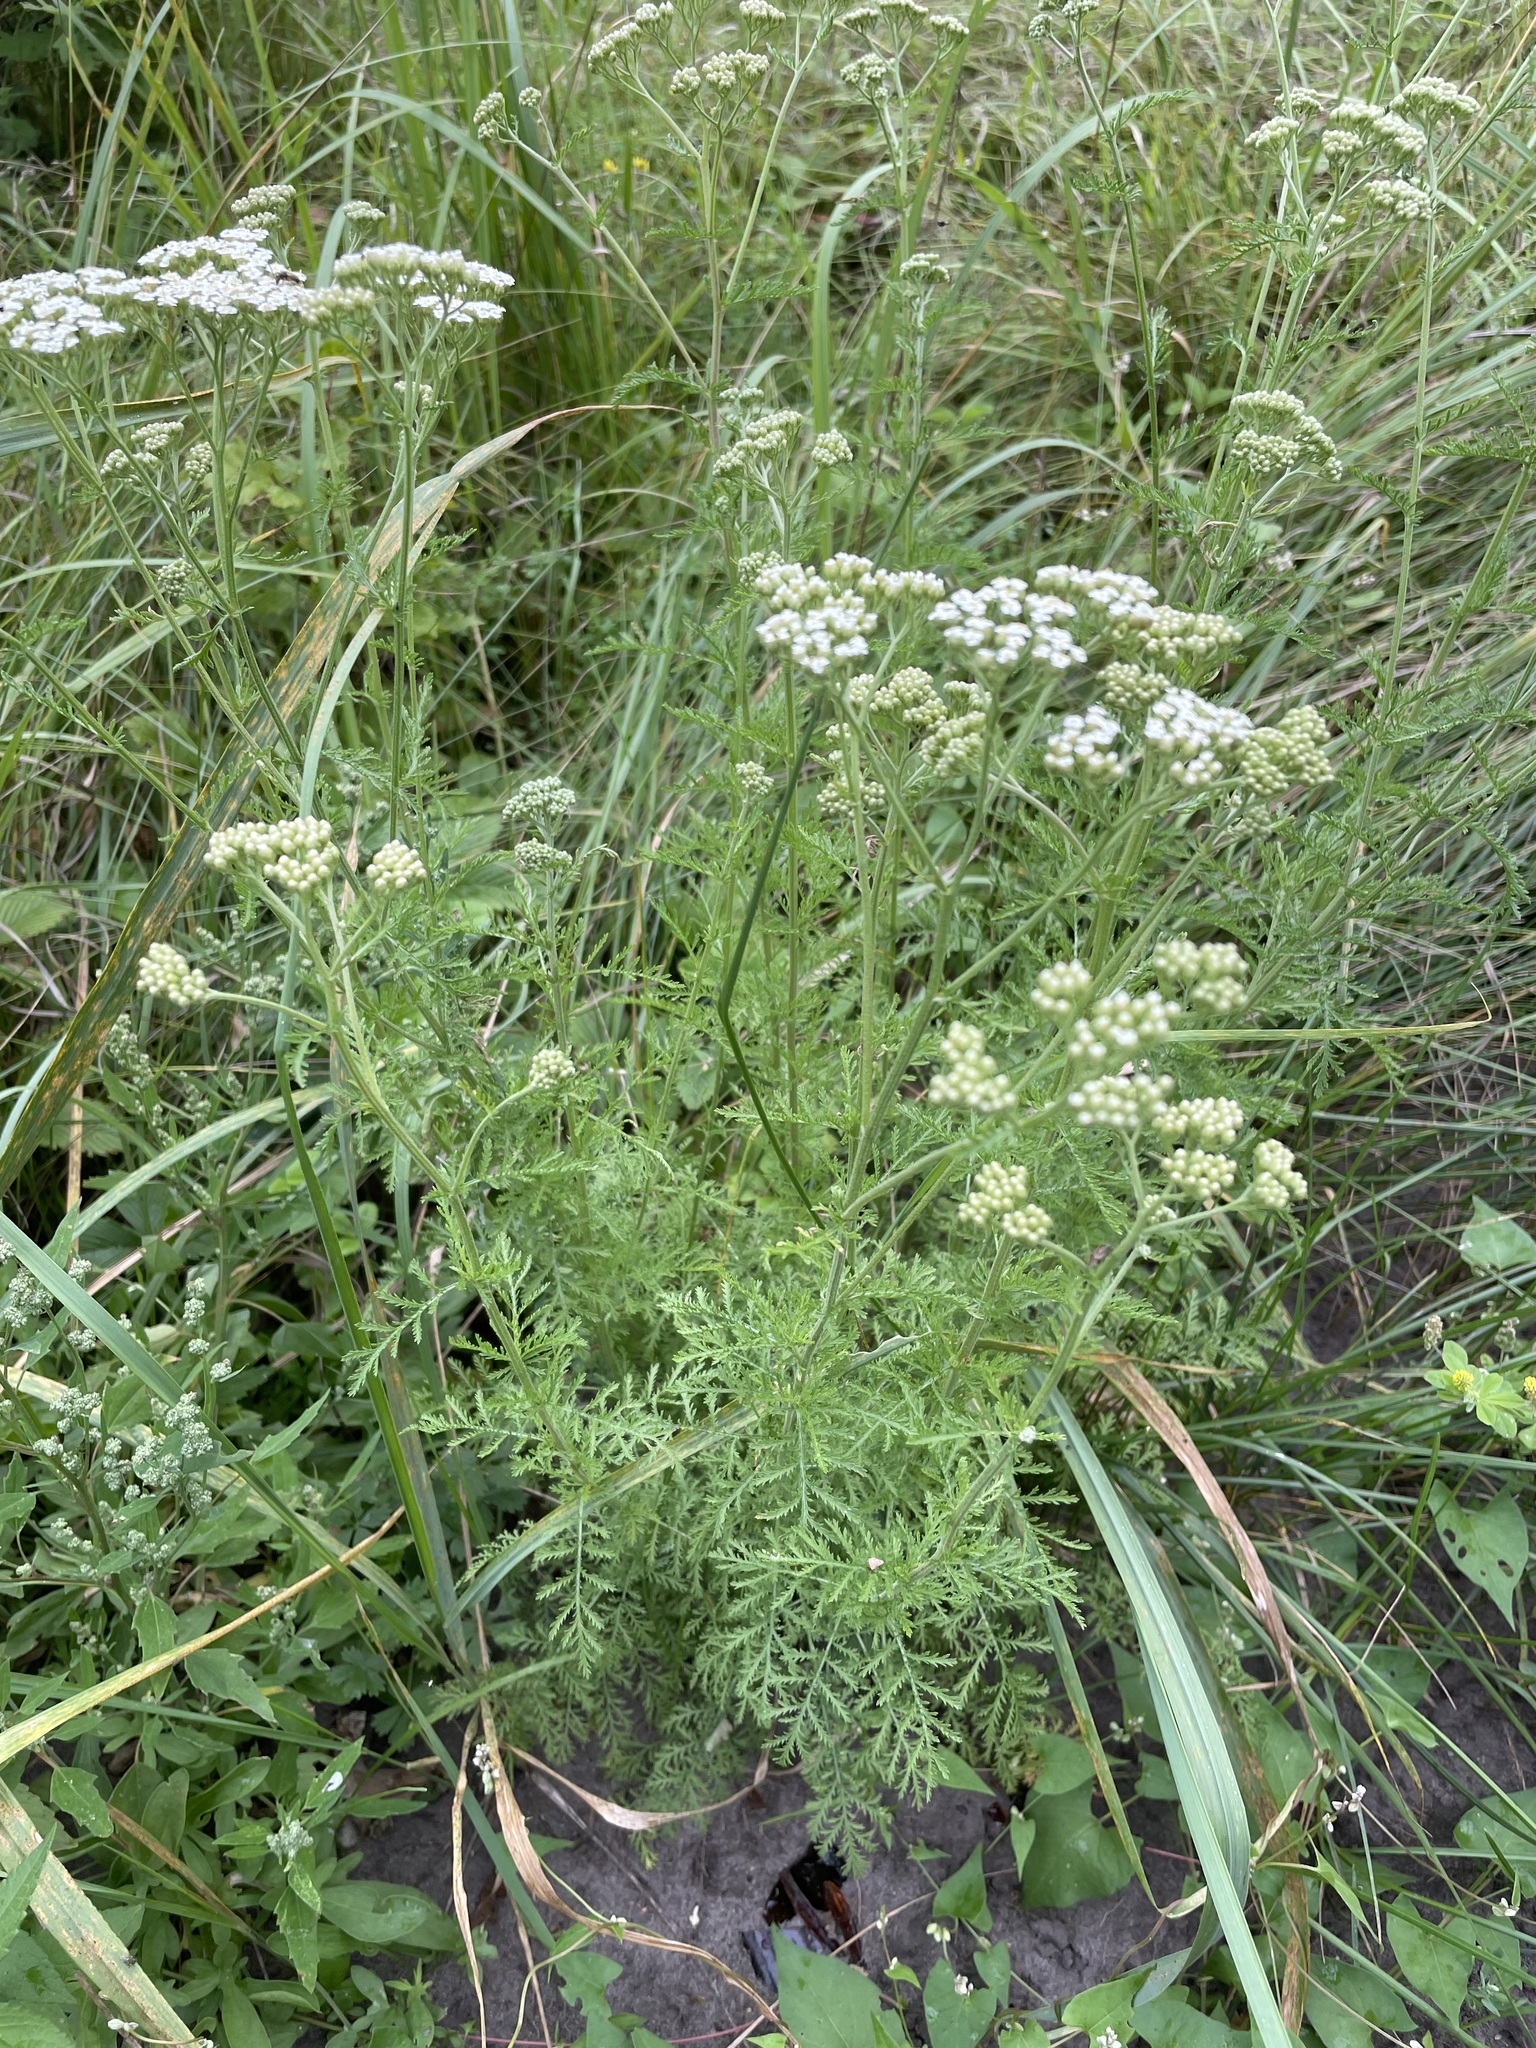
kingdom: Plantae
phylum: Tracheophyta
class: Magnoliopsida
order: Asterales
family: Asteraceae
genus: Achillea
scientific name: Achillea nobilis
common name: Noble yarrow
